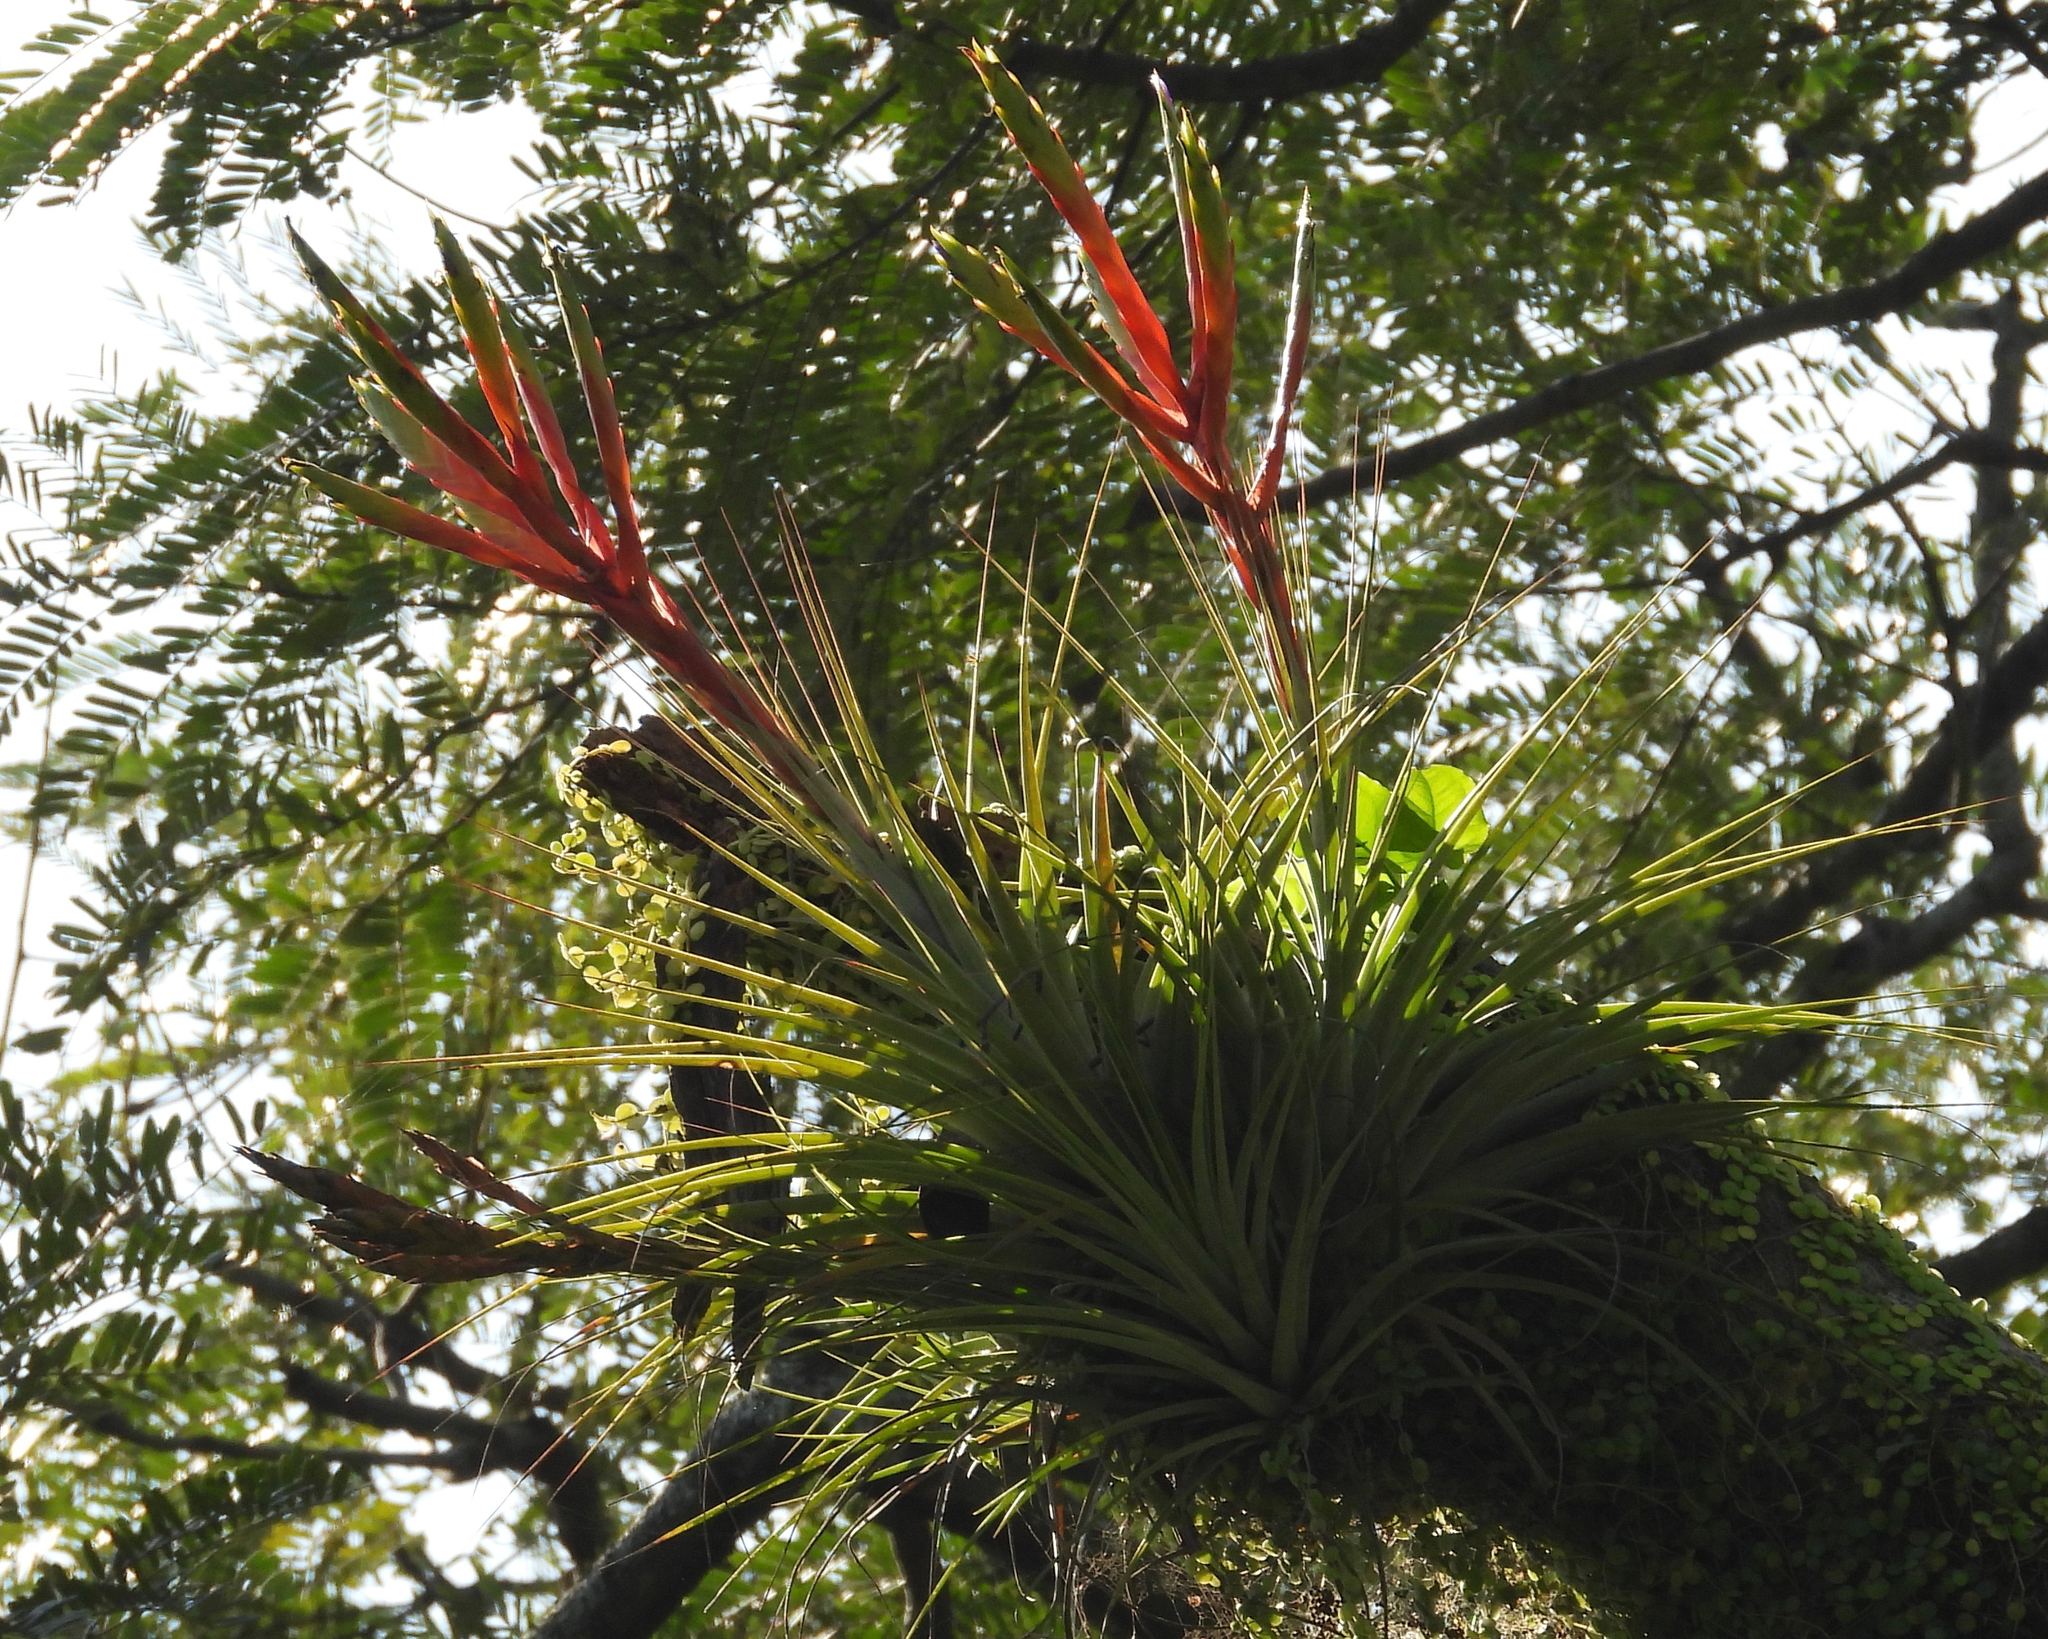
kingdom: Plantae
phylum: Tracheophyta
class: Liliopsida
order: Poales
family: Bromeliaceae
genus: Tillandsia
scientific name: Tillandsia fasciculata
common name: Giant airplant
